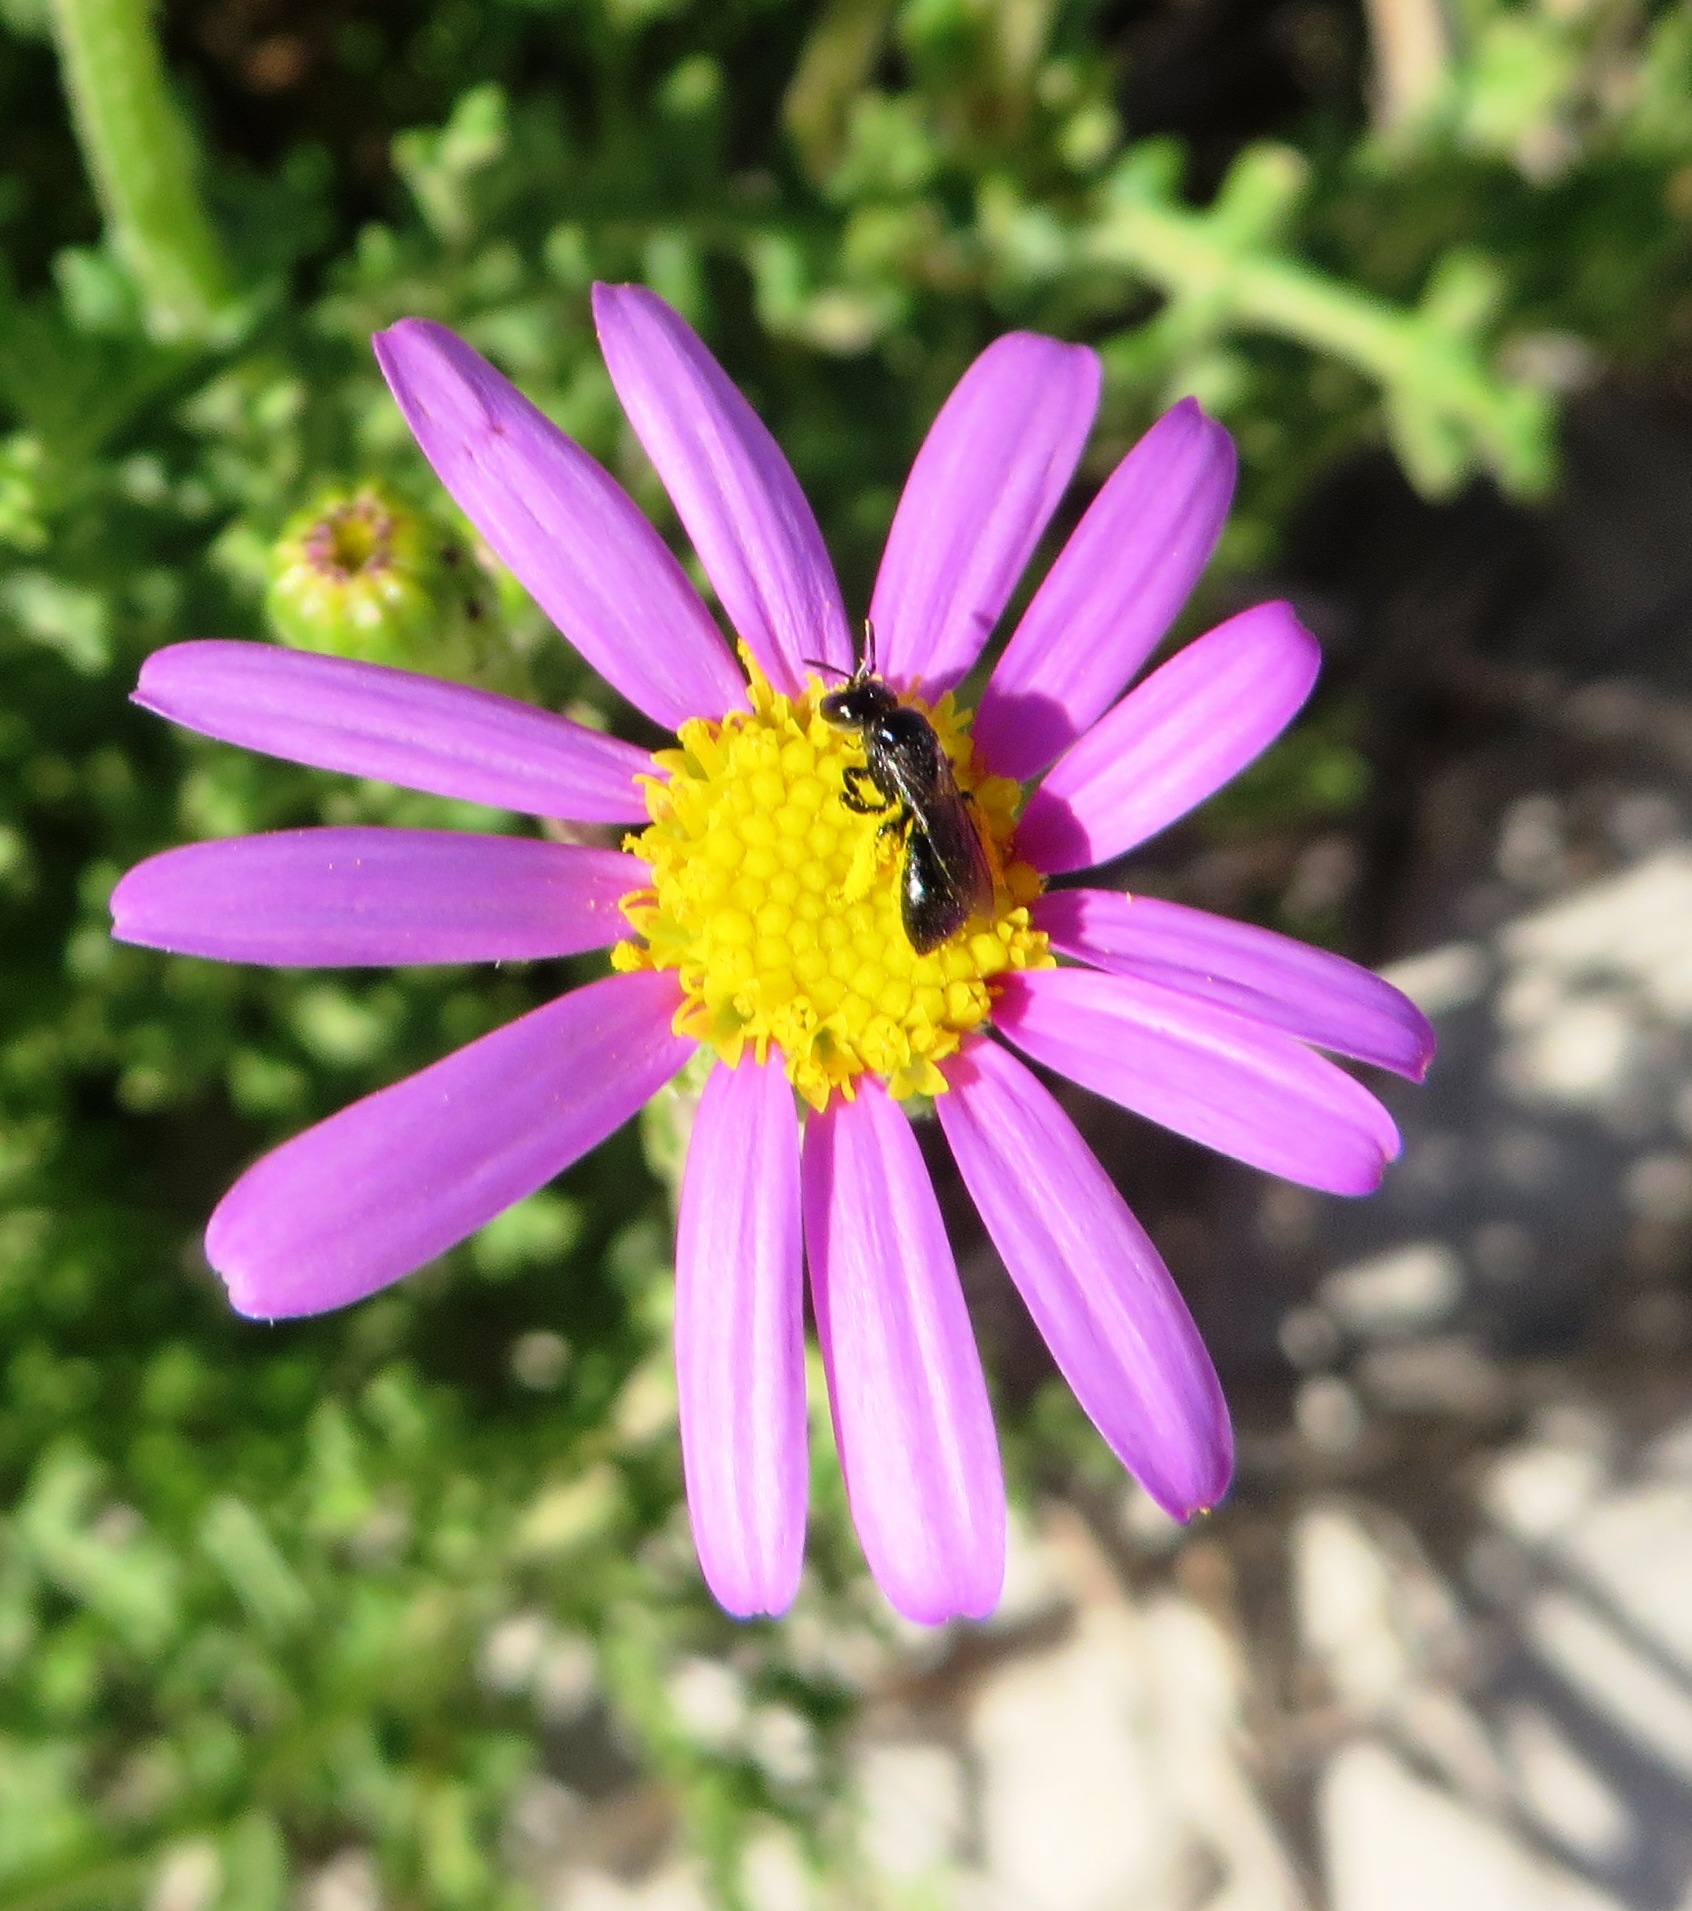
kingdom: Plantae
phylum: Tracheophyta
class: Magnoliopsida
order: Asterales
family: Asteraceae
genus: Senecio
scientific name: Senecio elegans
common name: Purple groundsel
